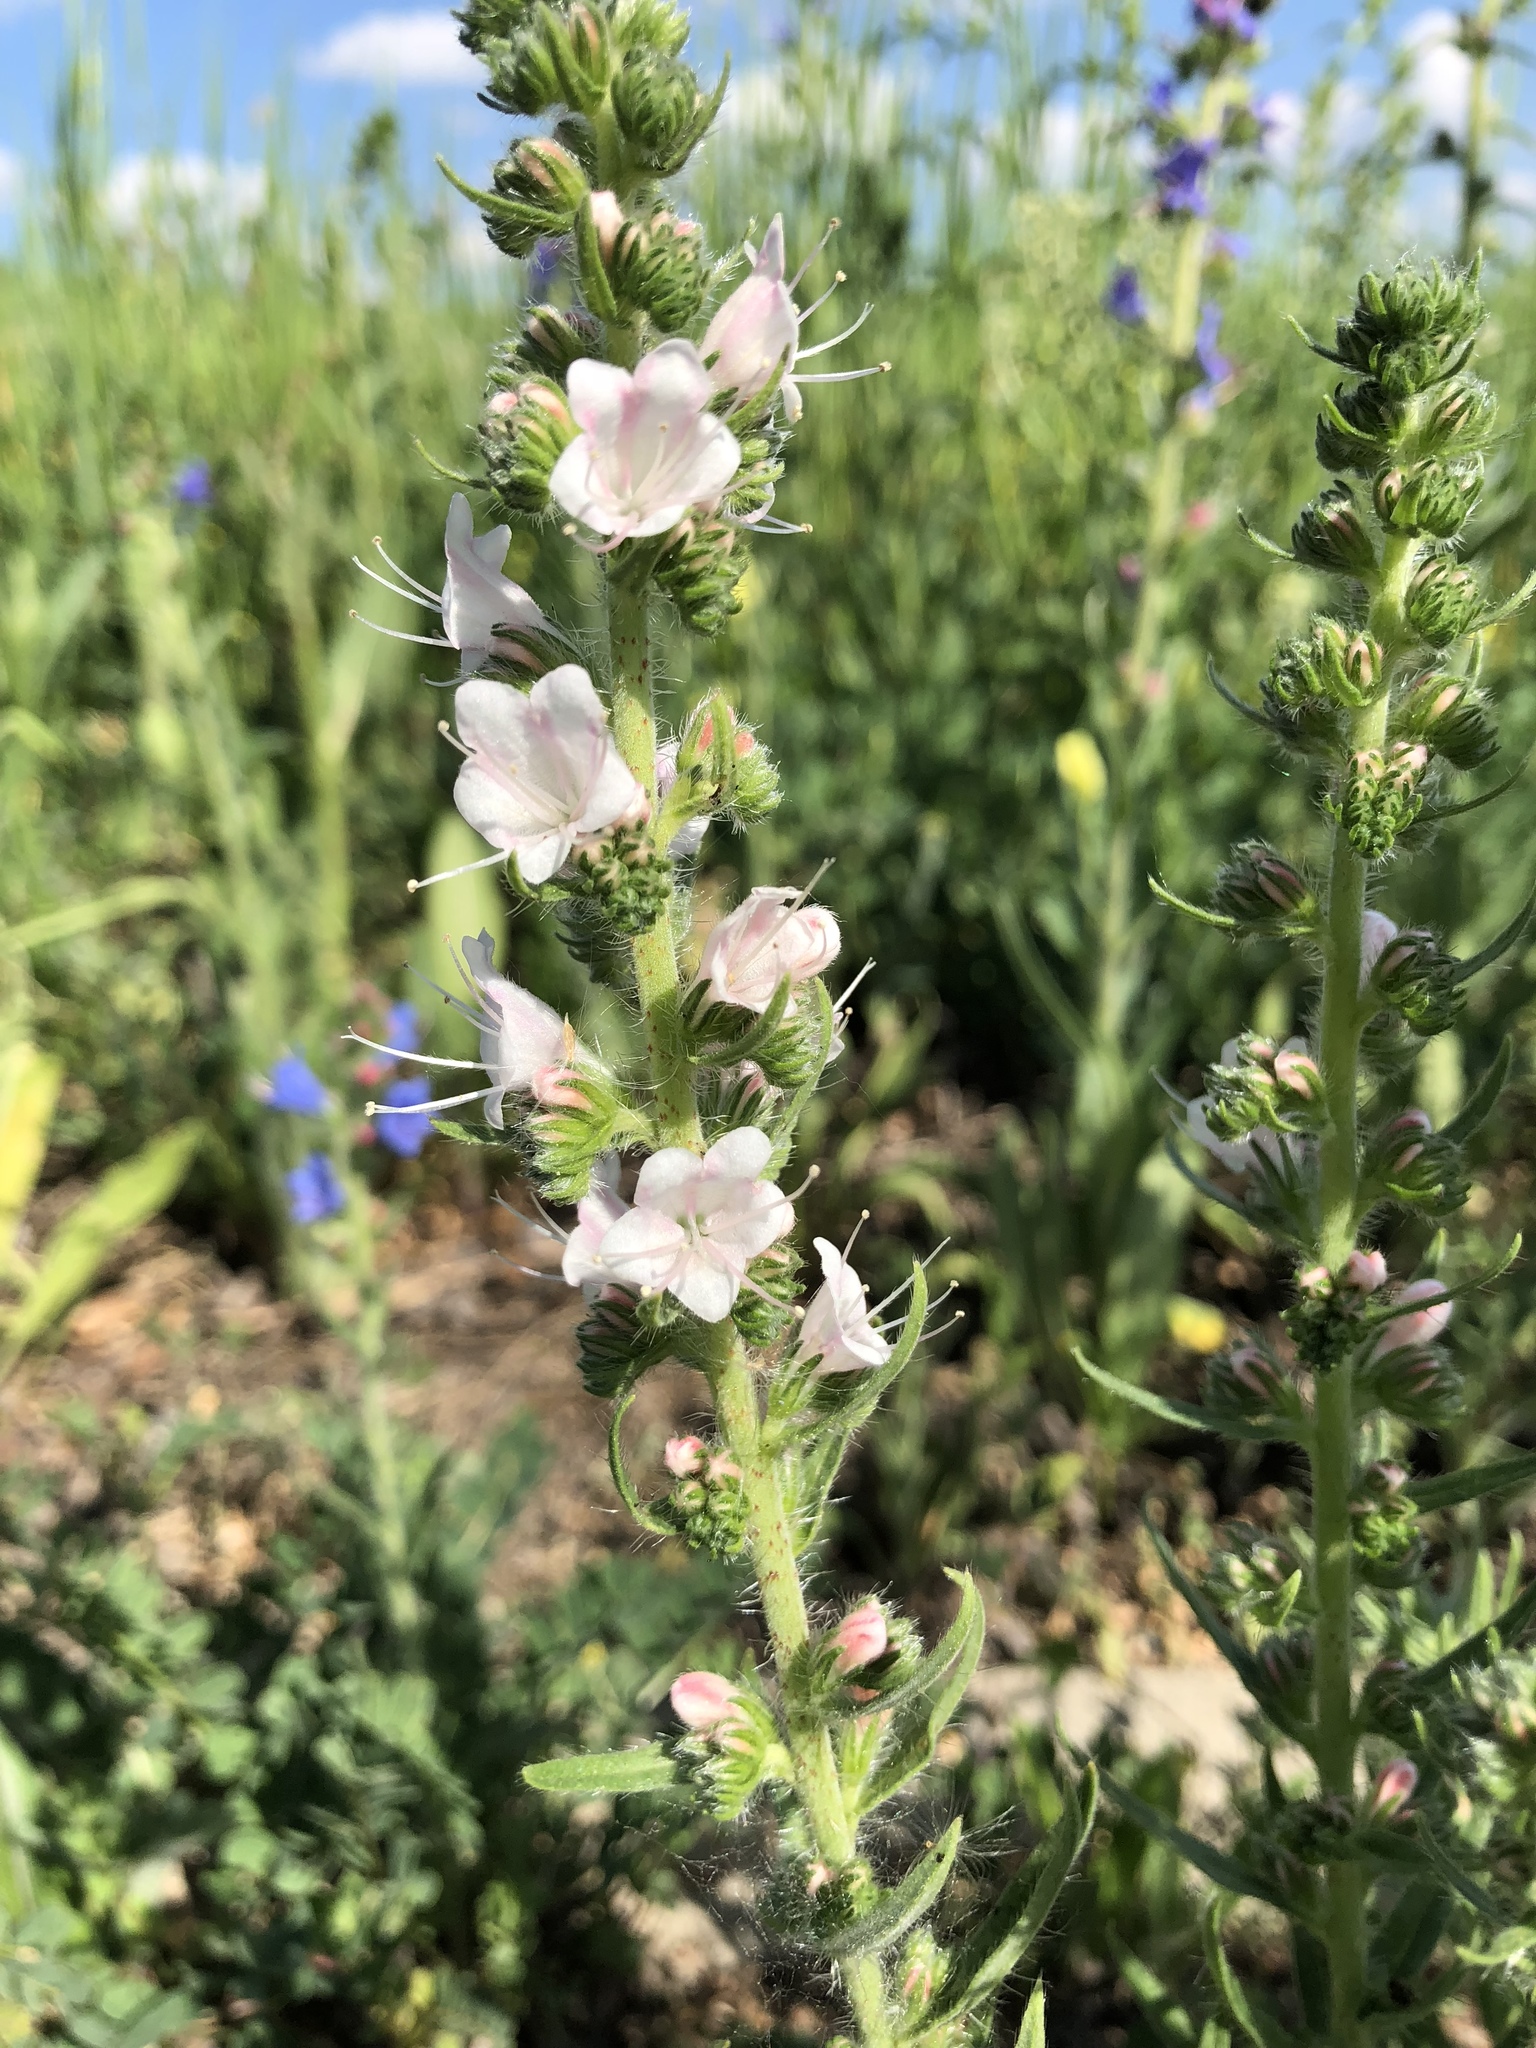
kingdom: Plantae
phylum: Tracheophyta
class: Magnoliopsida
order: Boraginales
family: Boraginaceae
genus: Echium
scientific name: Echium vulgare
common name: Common viper's bugloss
